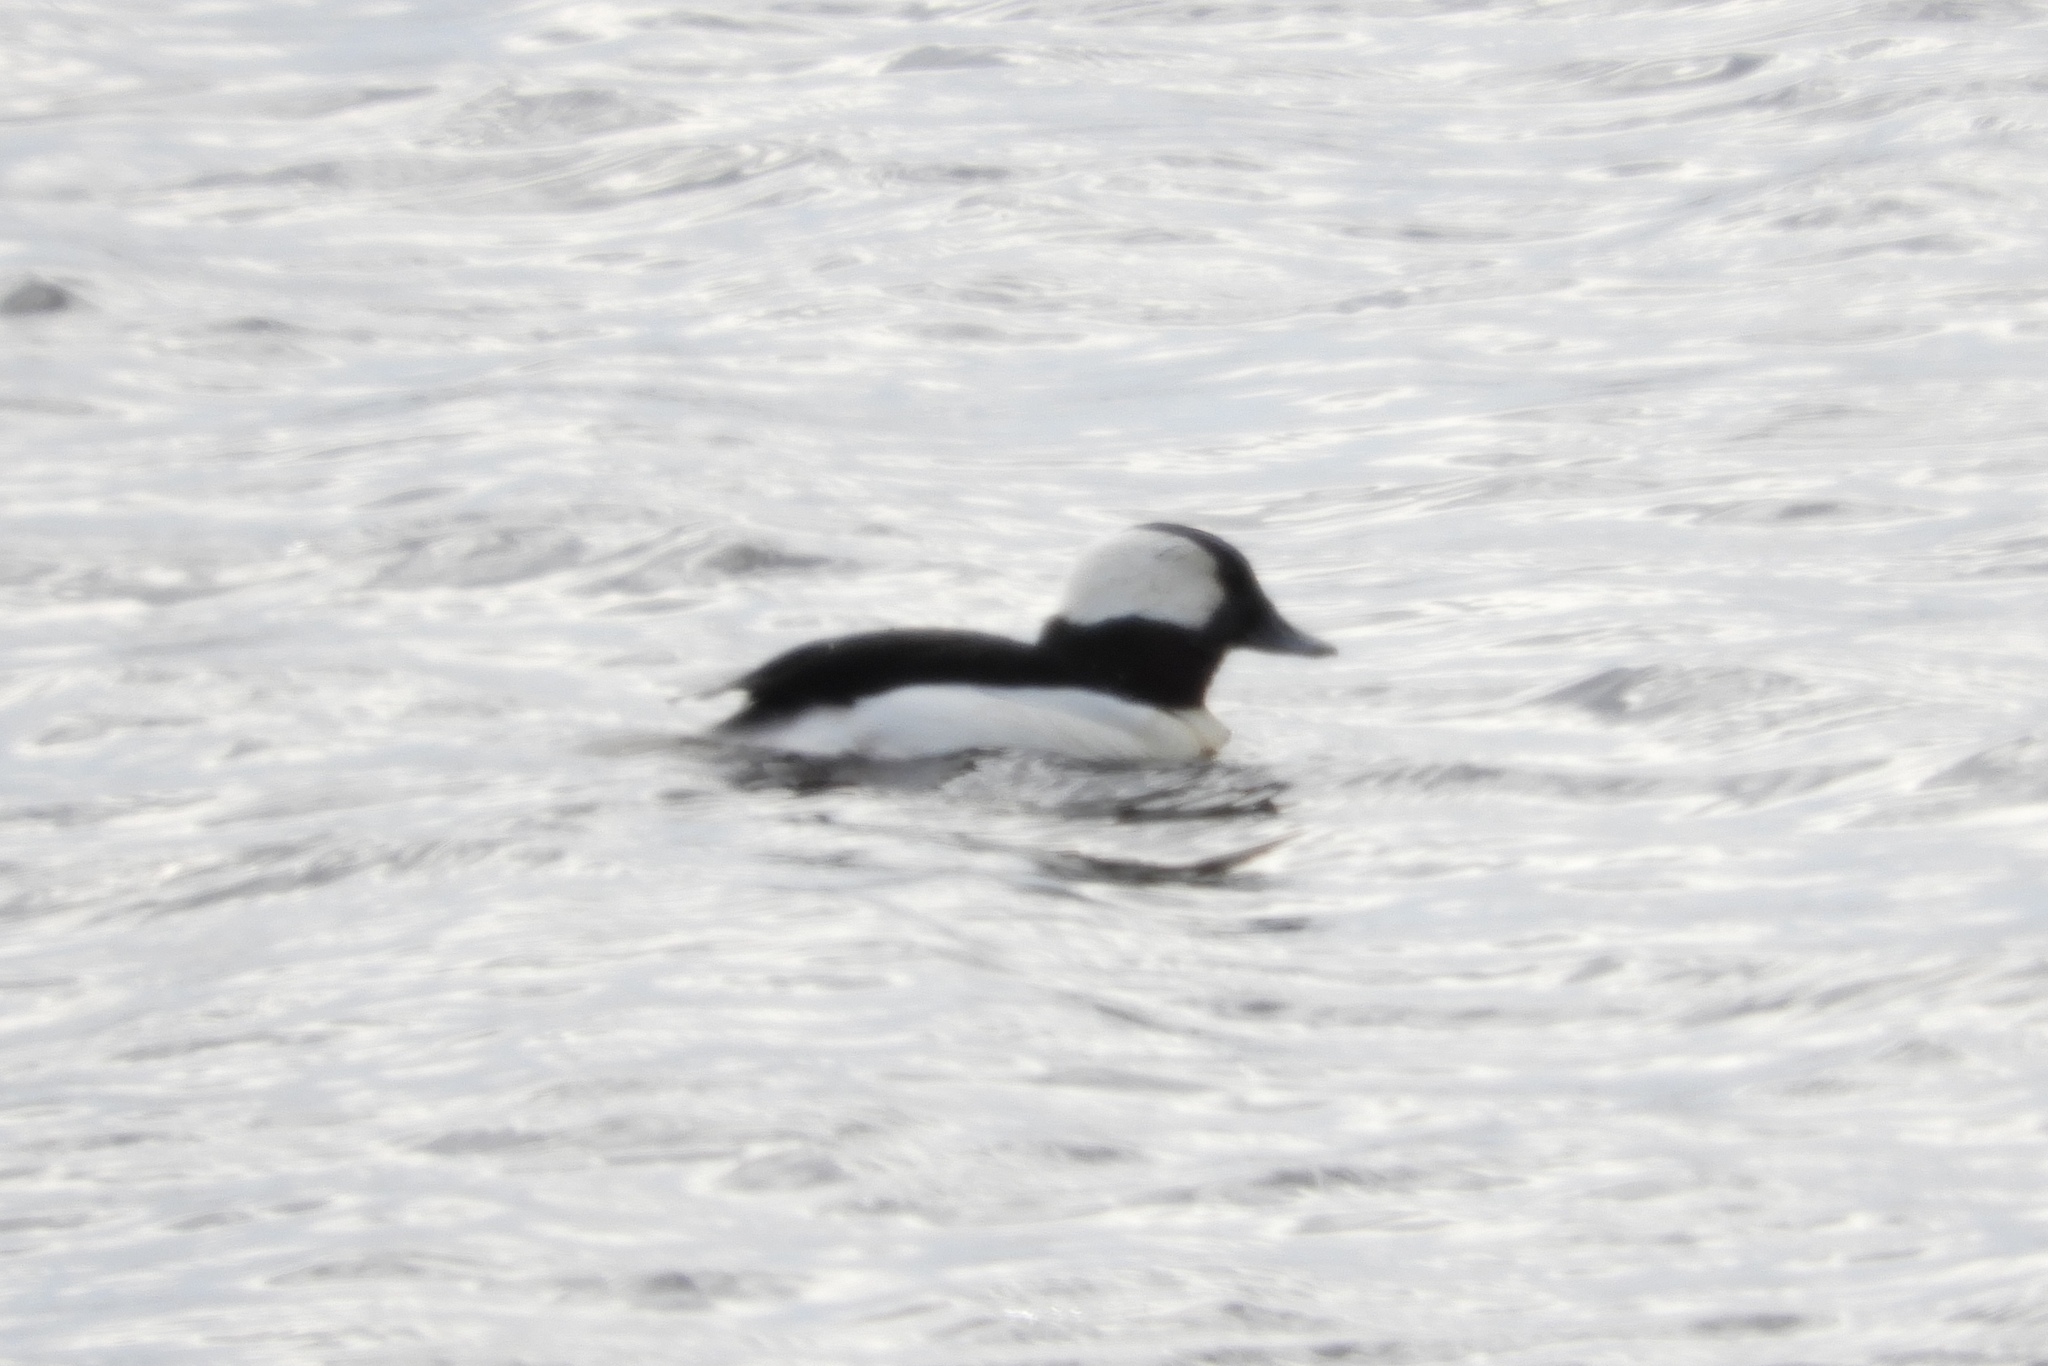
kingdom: Animalia
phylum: Chordata
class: Aves
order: Anseriformes
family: Anatidae
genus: Bucephala
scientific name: Bucephala albeola
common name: Bufflehead
